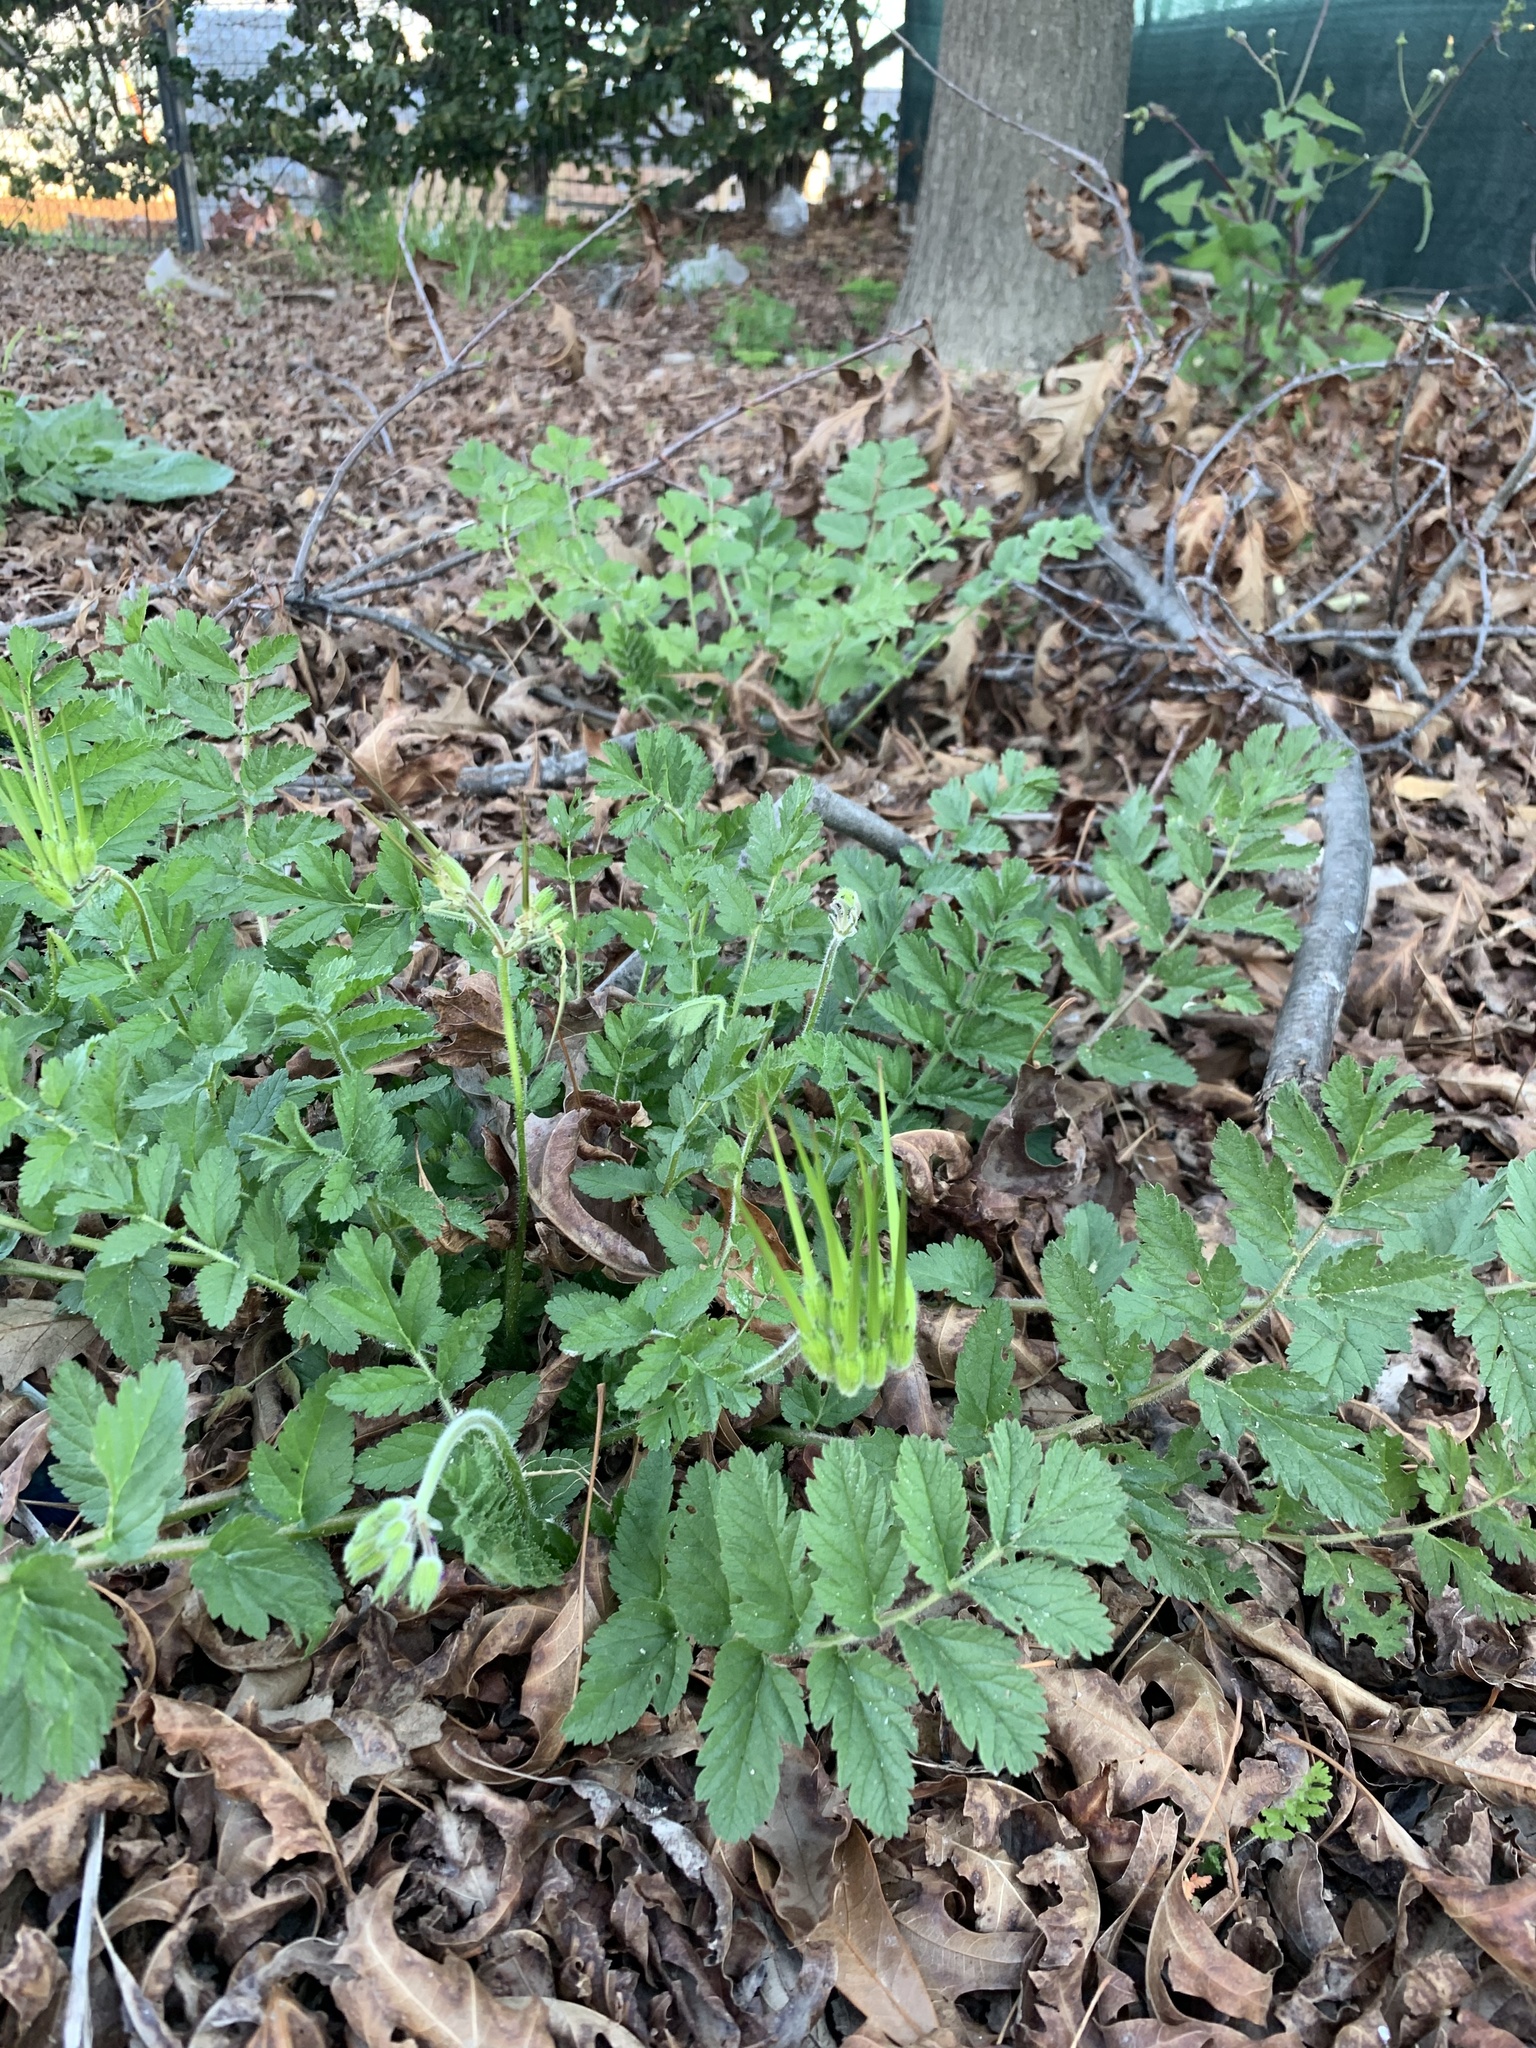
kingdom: Plantae
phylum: Tracheophyta
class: Magnoliopsida
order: Geraniales
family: Geraniaceae
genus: Erodium
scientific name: Erodium moschatum
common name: Musk stork's-bill
